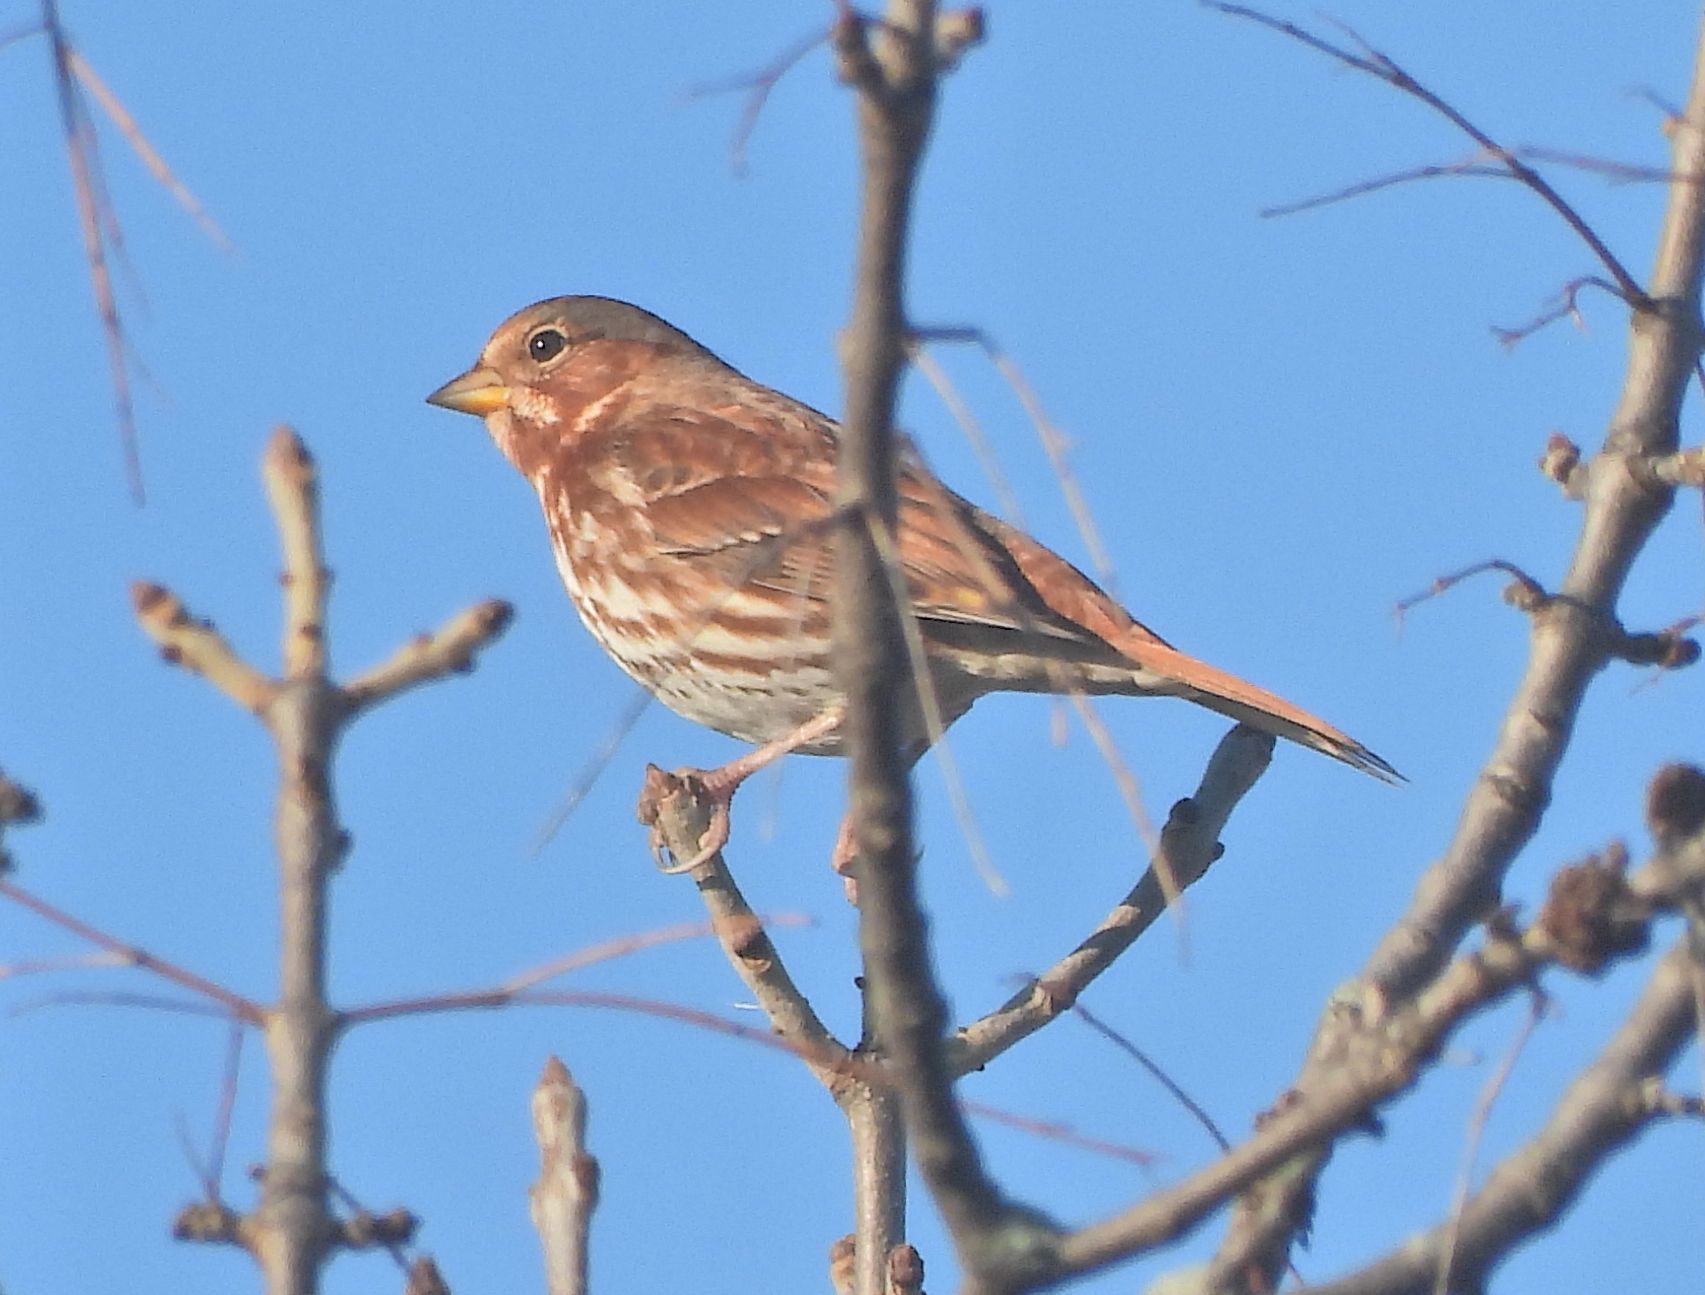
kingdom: Animalia
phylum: Chordata
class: Aves
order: Passeriformes
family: Passerellidae
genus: Passerella
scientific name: Passerella iliaca
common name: Fox sparrow
